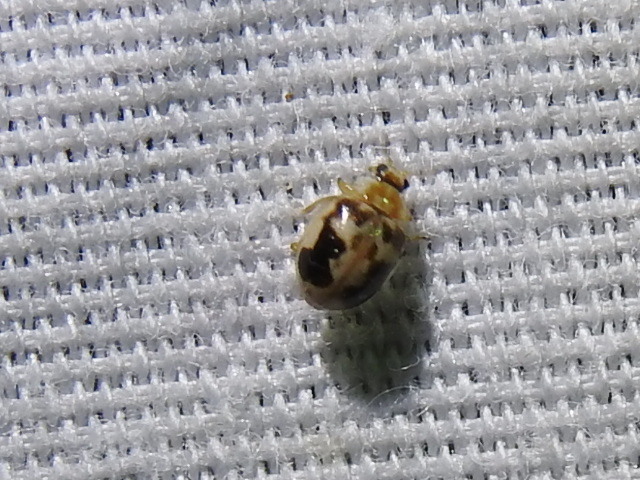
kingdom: Animalia
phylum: Arthropoda
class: Insecta
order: Coleoptera
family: Coccinellidae
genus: Psyllobora
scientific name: Psyllobora renifer
